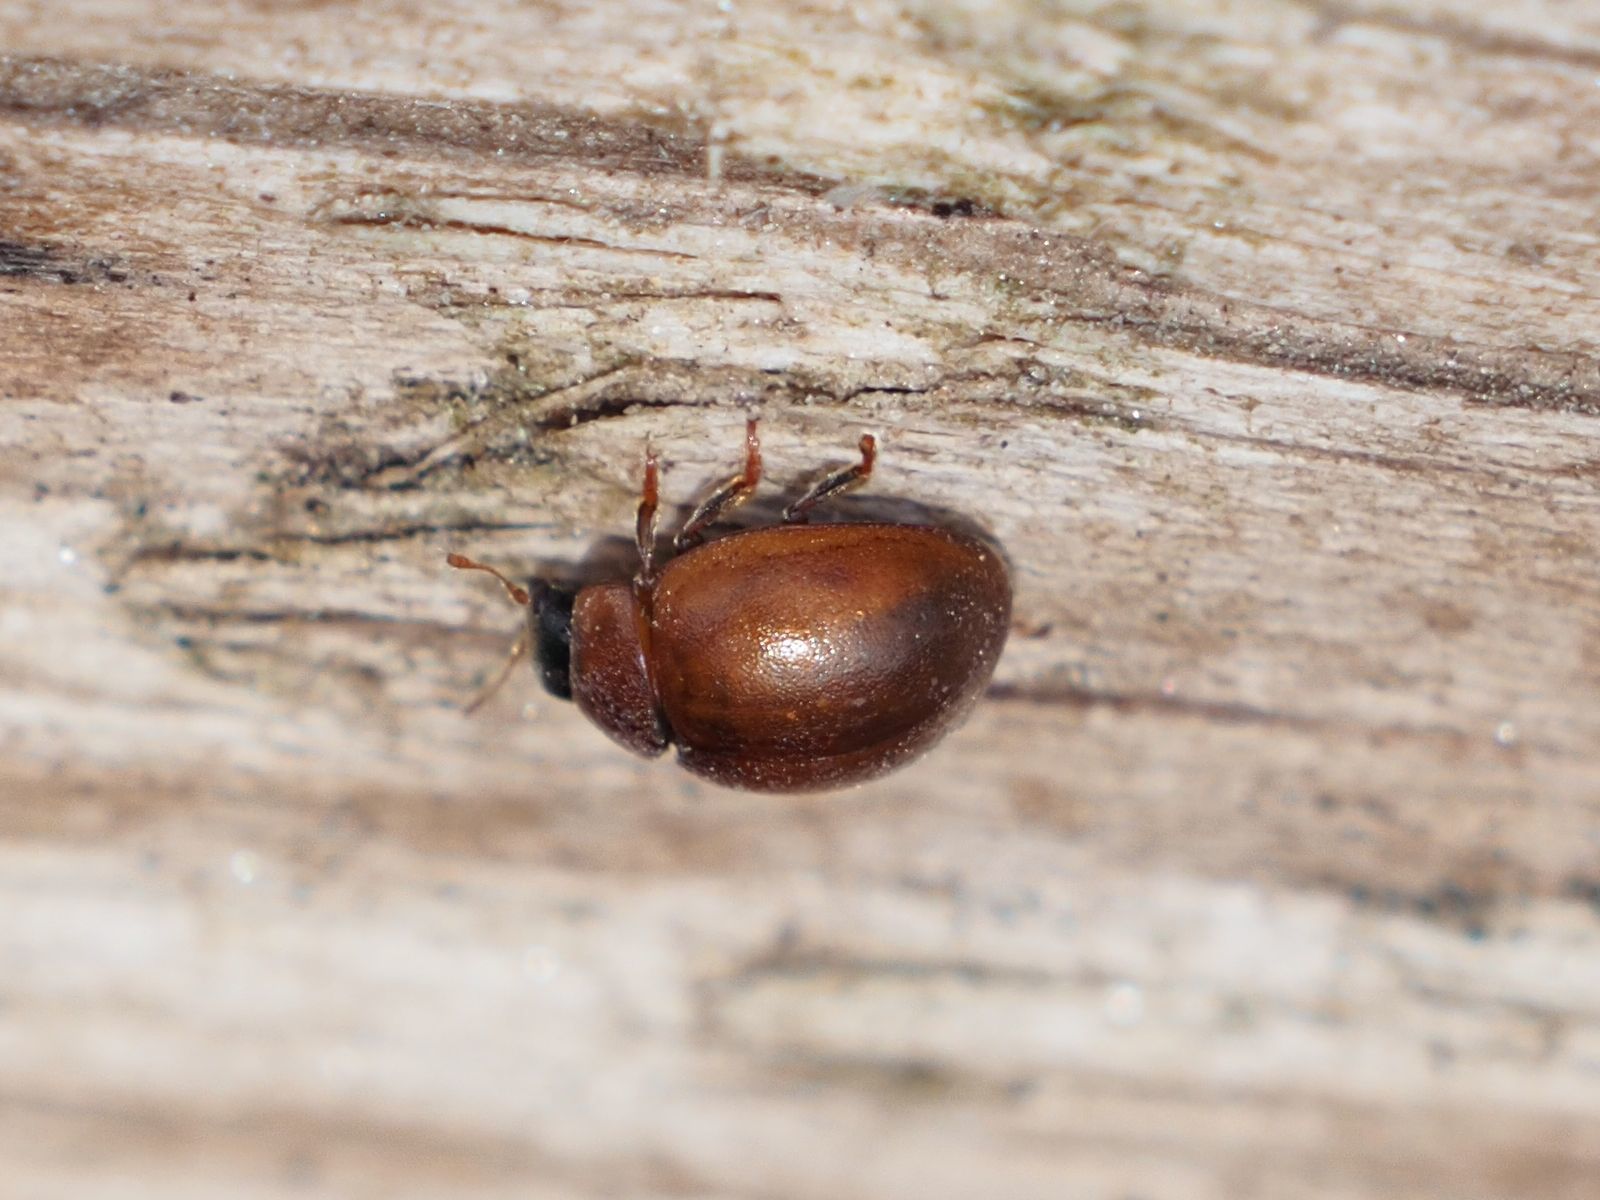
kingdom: Animalia
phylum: Arthropoda
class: Insecta
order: Coleoptera
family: Coccinellidae
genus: Cynegetis
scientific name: Cynegetis impunctata
